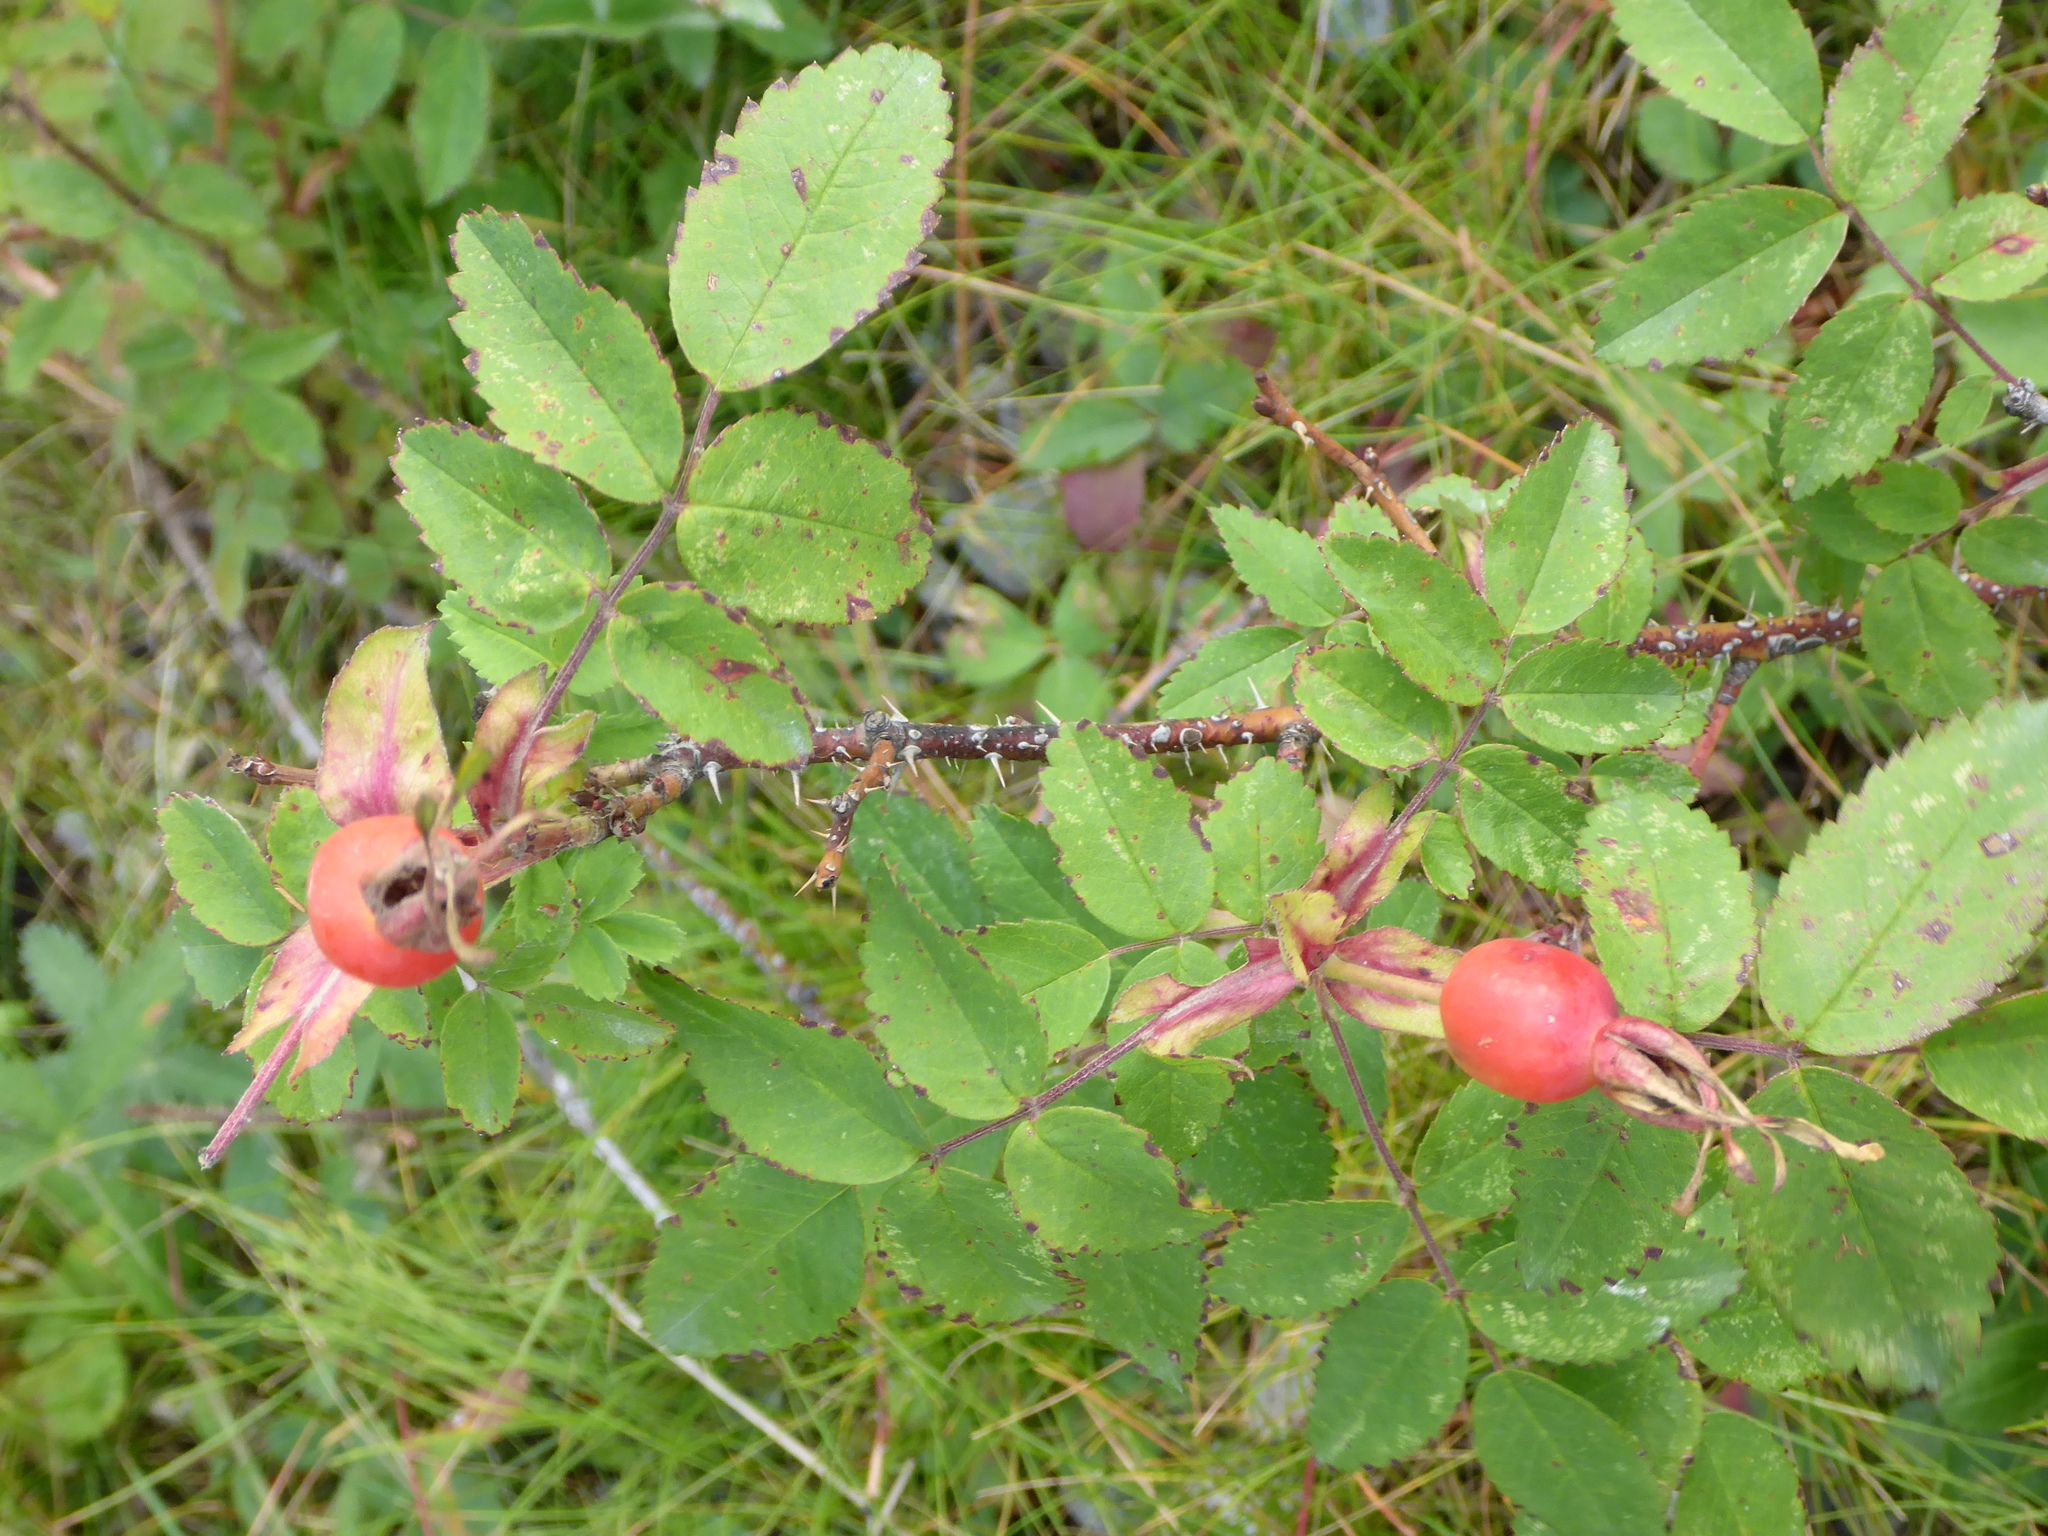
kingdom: Plantae
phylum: Tracheophyta
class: Magnoliopsida
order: Rosales
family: Rosaceae
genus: Rosa
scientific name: Rosa acicularis
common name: Prickly rose
